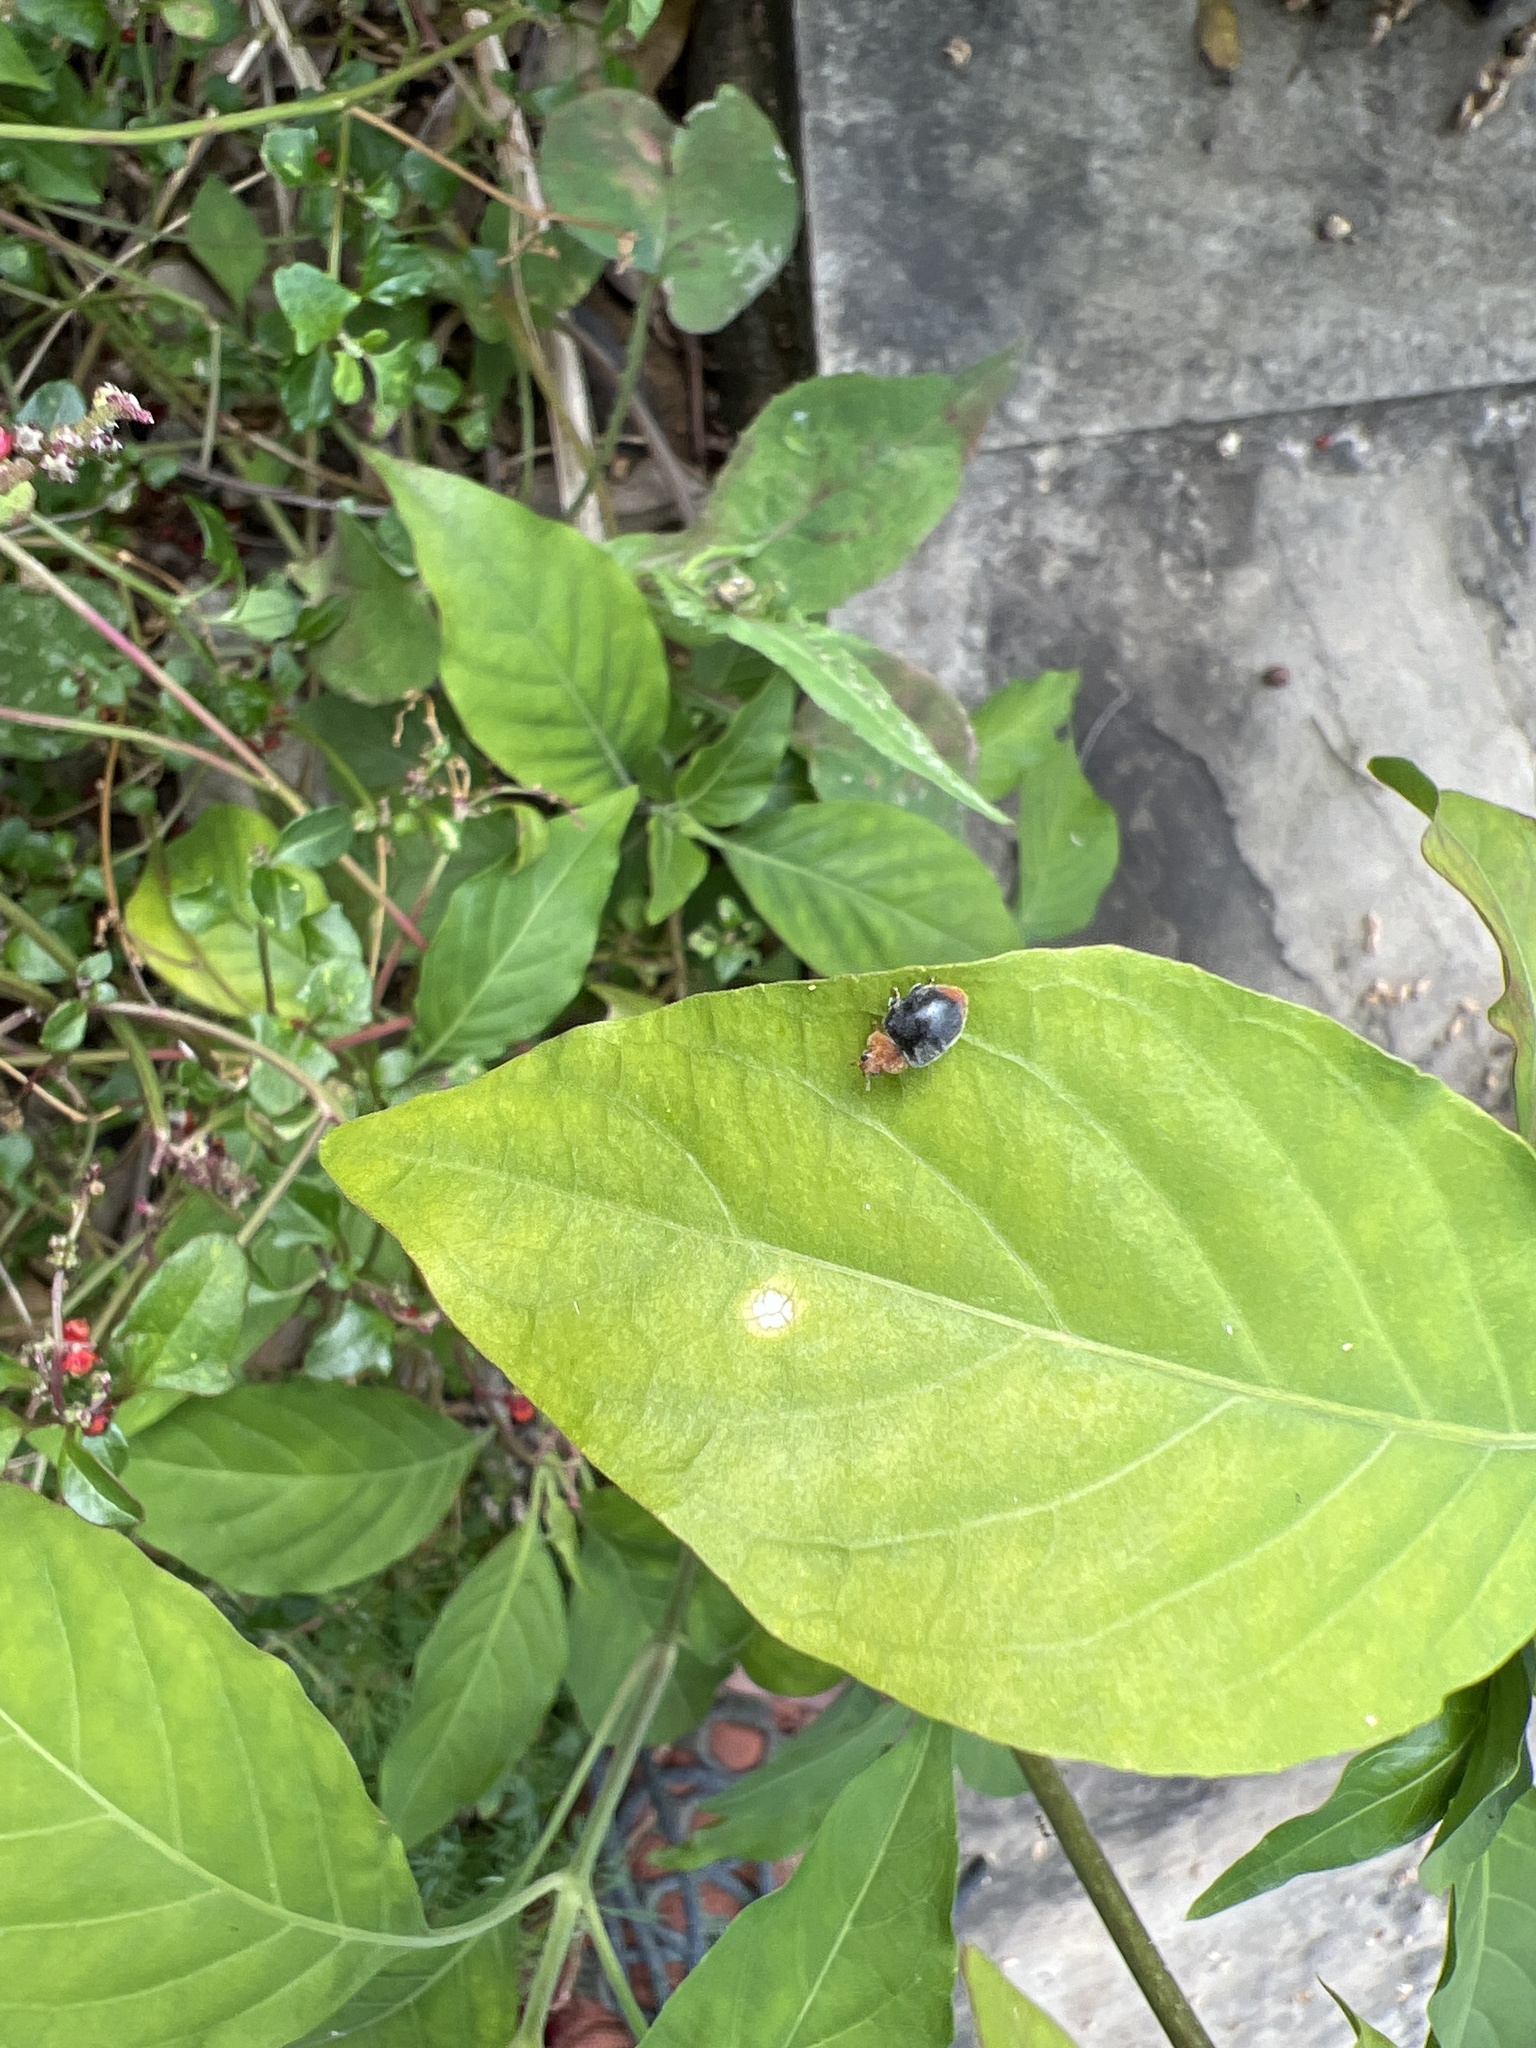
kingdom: Animalia
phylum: Arthropoda
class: Insecta
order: Coleoptera
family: Coccinellidae
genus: Cryptolaemus
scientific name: Cryptolaemus montrouzieri
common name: Mealybug destroyer
